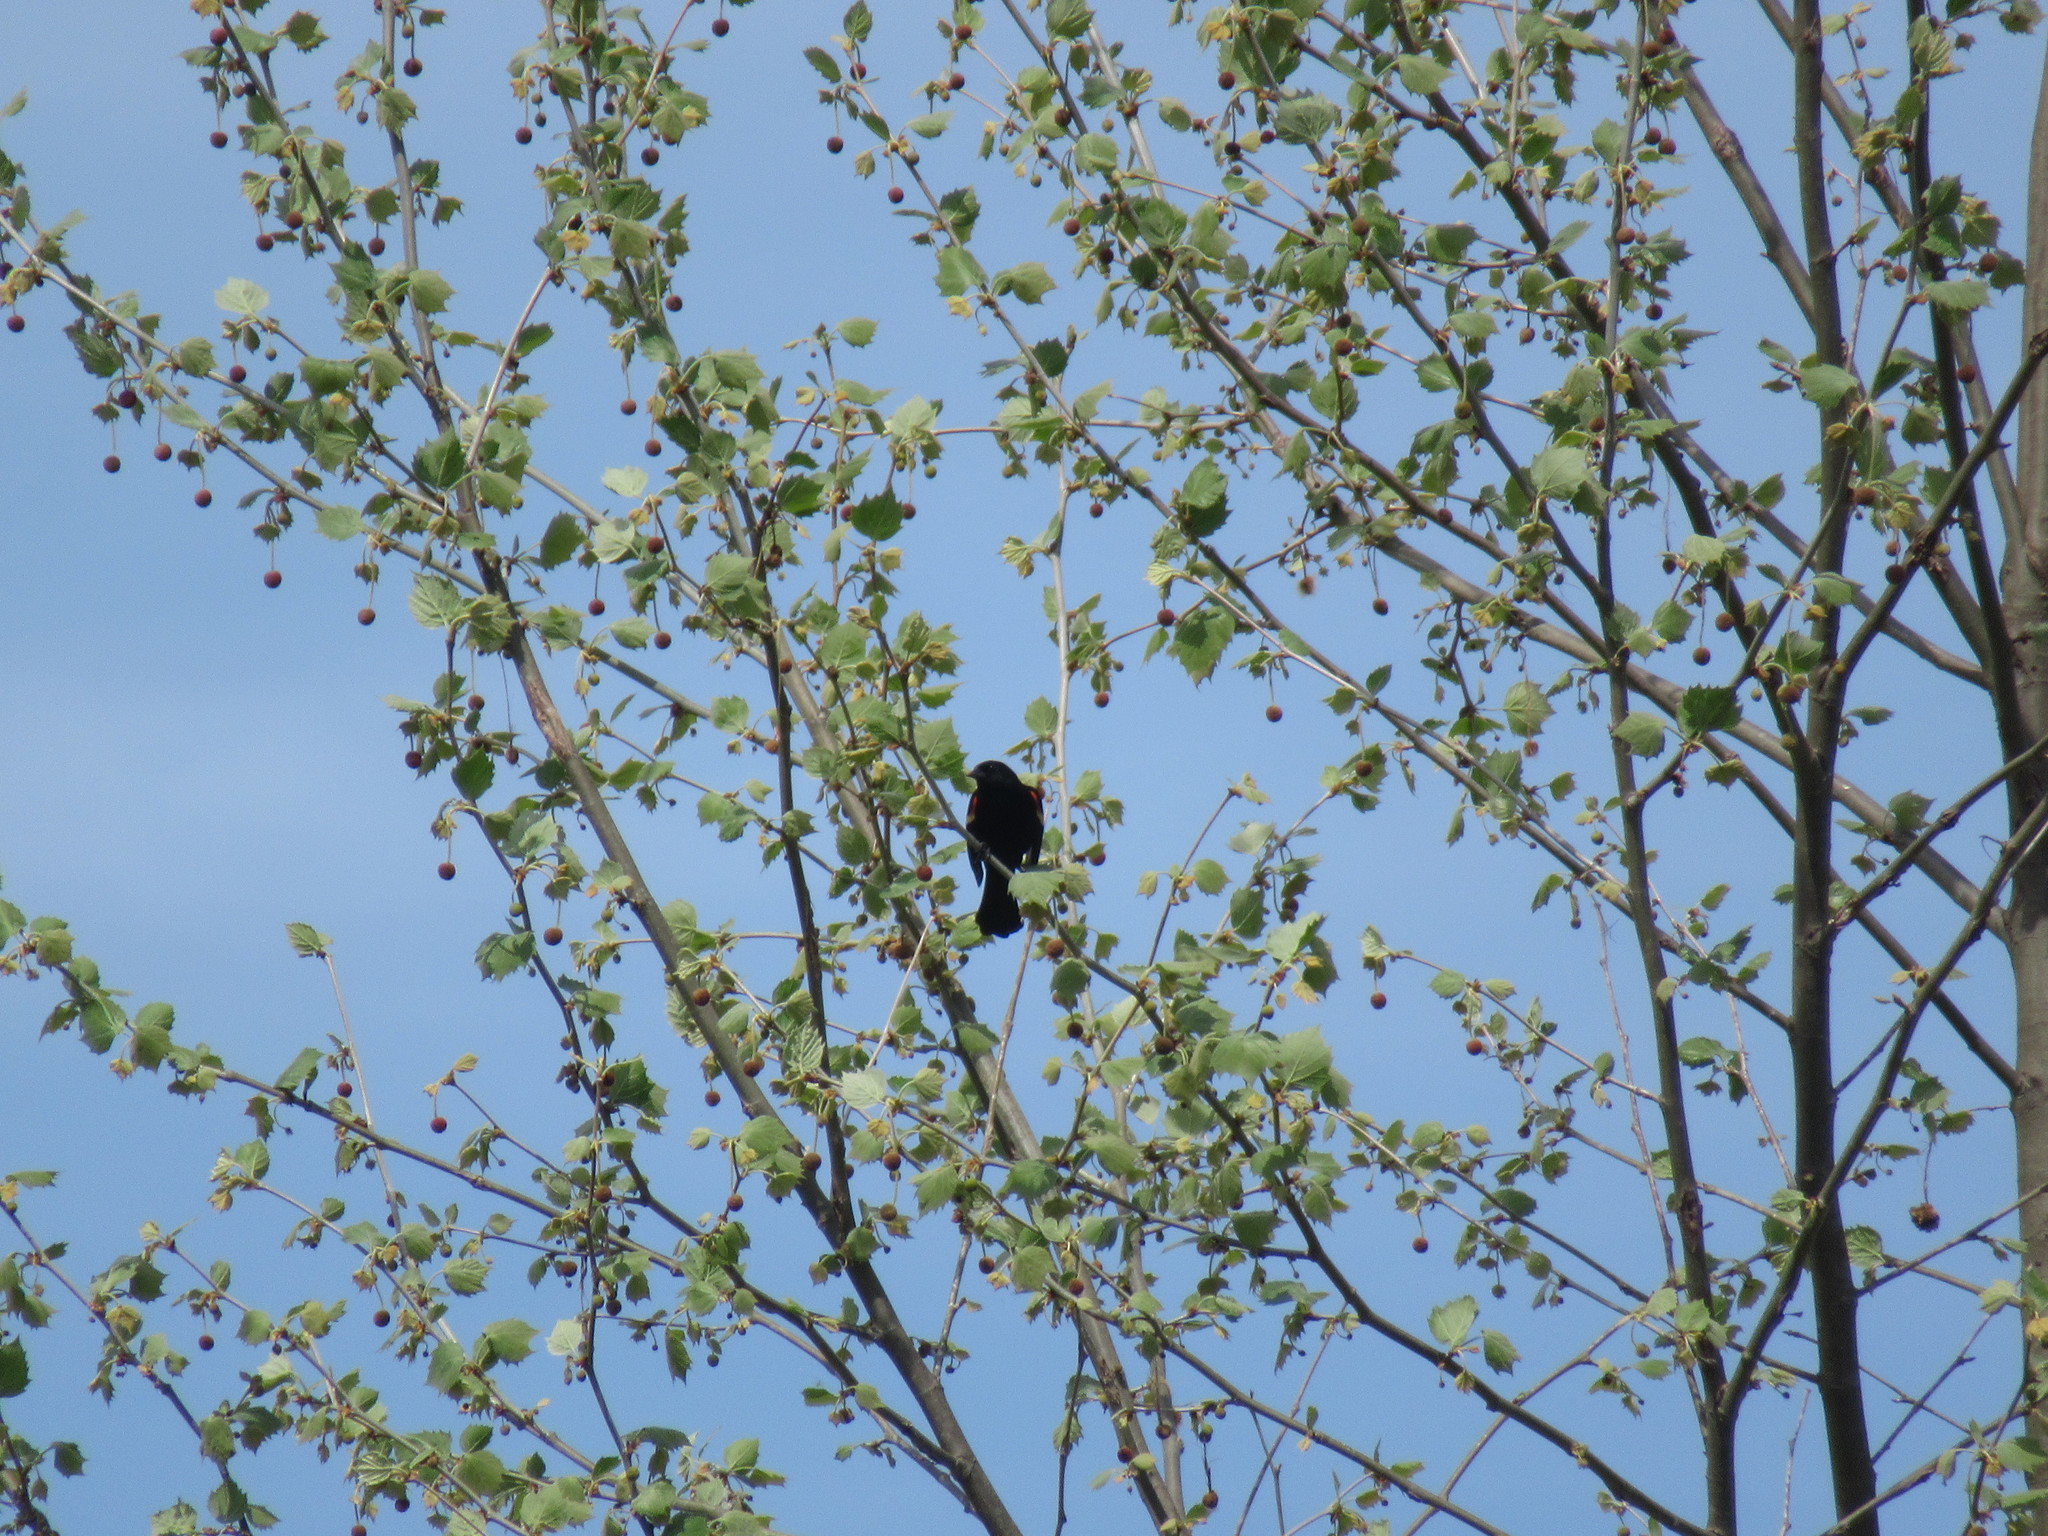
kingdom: Animalia
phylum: Chordata
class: Aves
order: Passeriformes
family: Icteridae
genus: Agelaius
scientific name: Agelaius phoeniceus
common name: Red-winged blackbird
